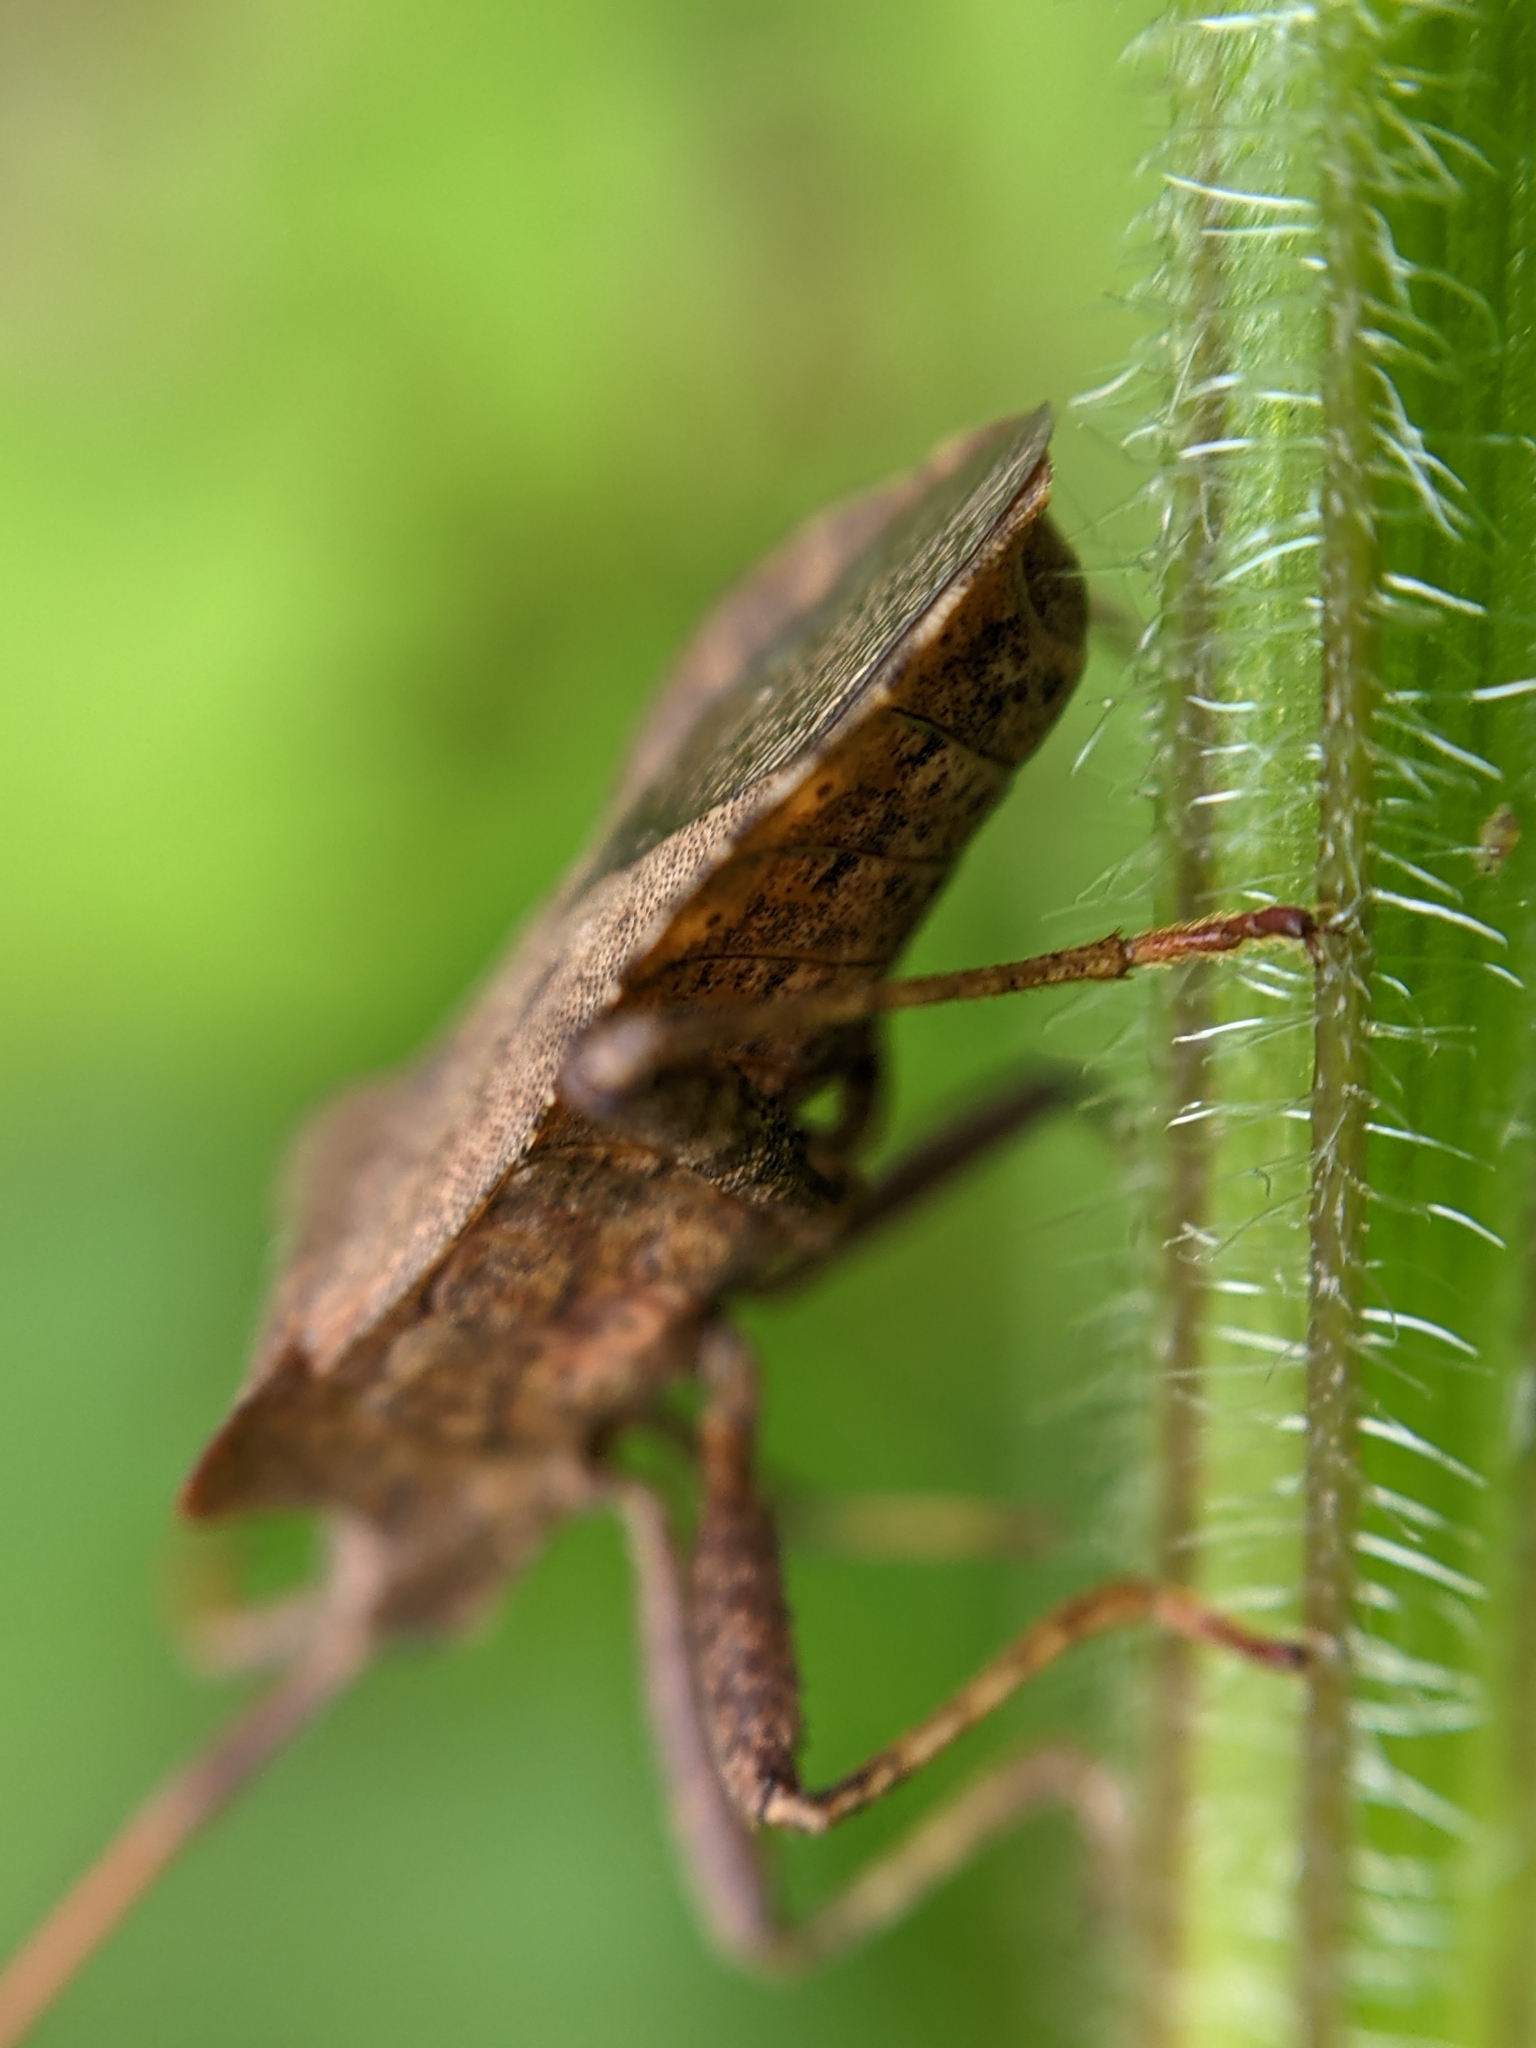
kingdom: Animalia
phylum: Arthropoda
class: Insecta
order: Hemiptera
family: Coreidae
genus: Coreus
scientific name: Coreus marginatus
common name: Dock bug
